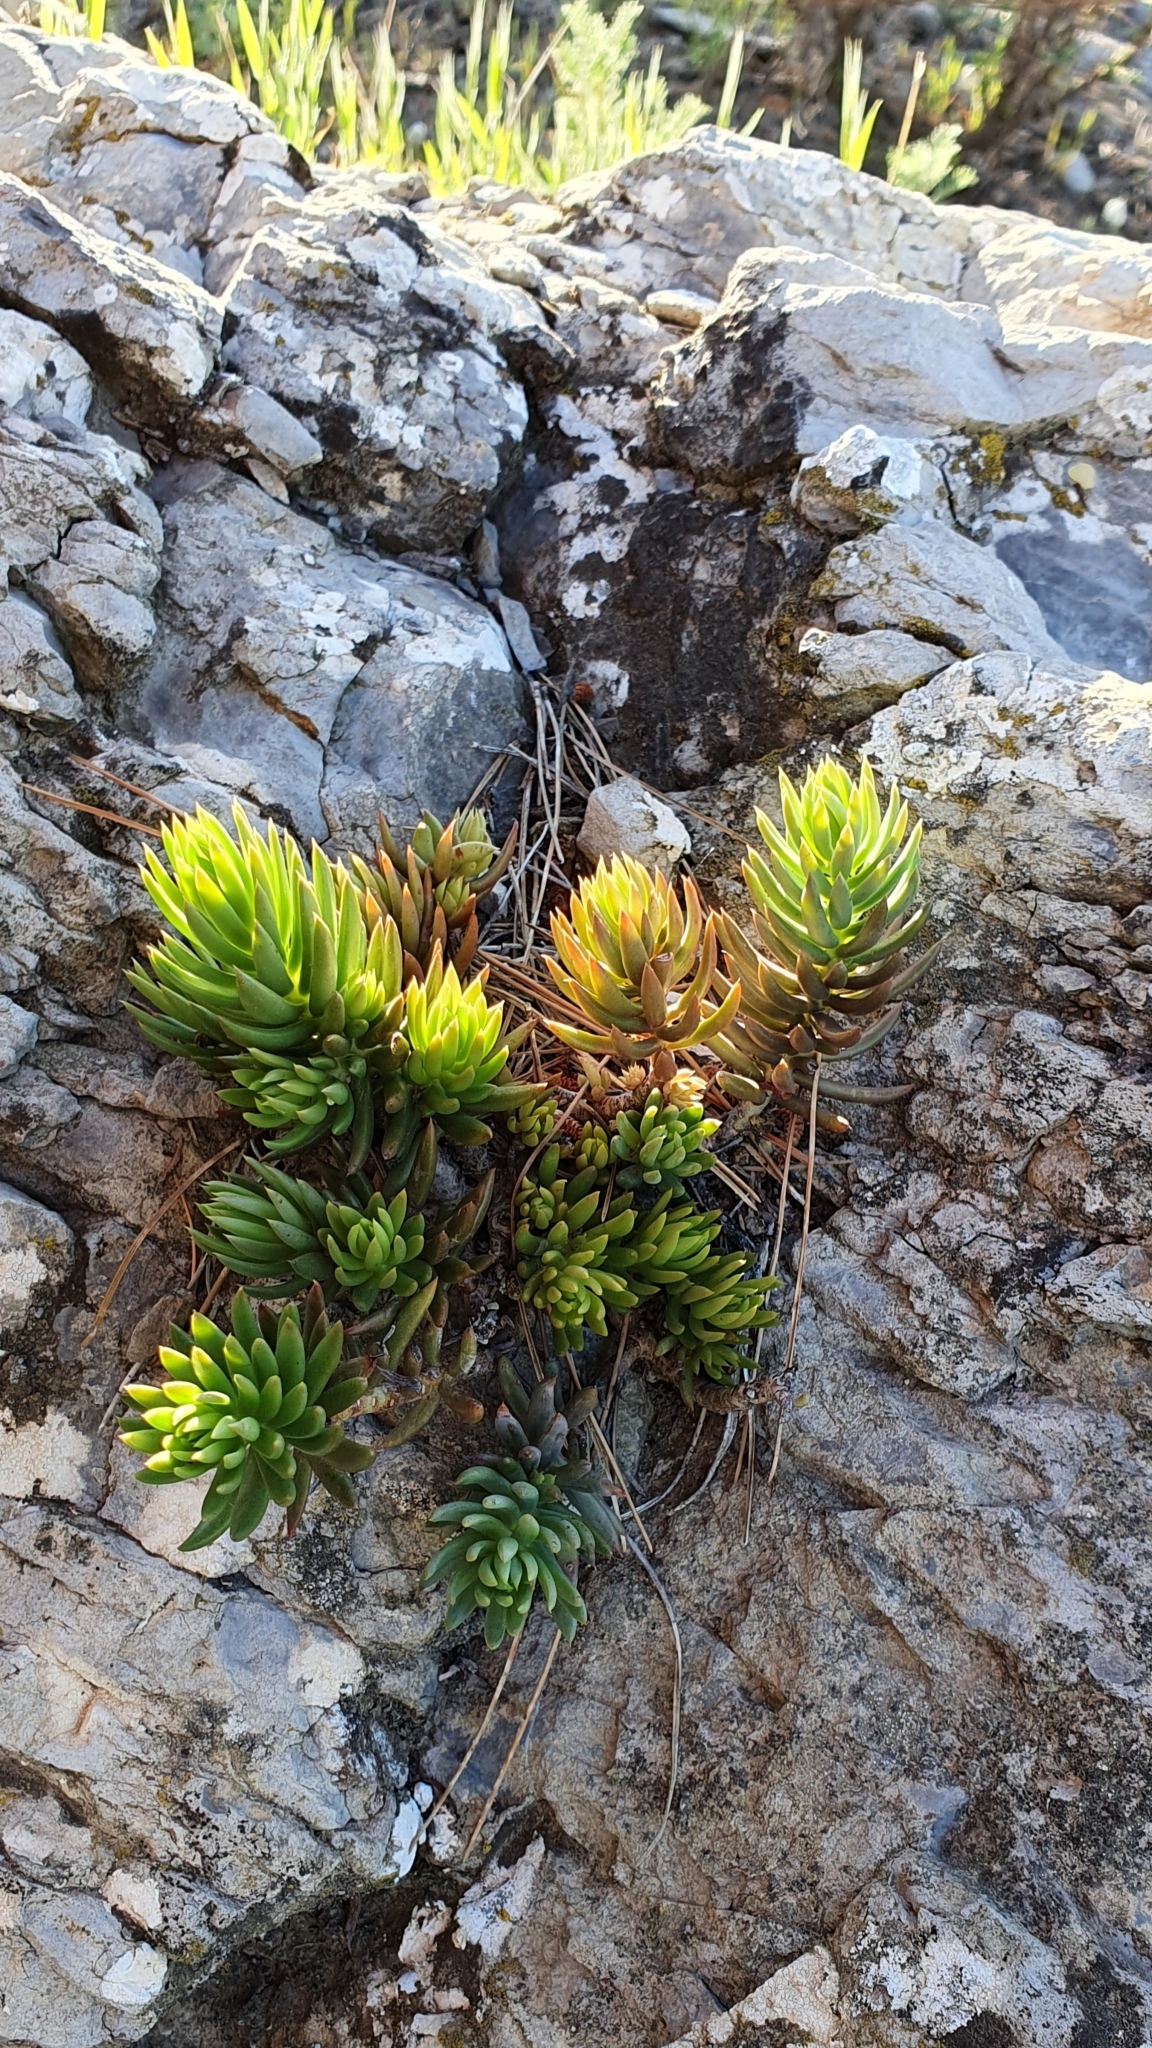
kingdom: Plantae
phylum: Tracheophyta
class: Magnoliopsida
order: Saxifragales
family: Crassulaceae
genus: Petrosedum
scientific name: Petrosedum sediforme
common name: Pale stonecrop
